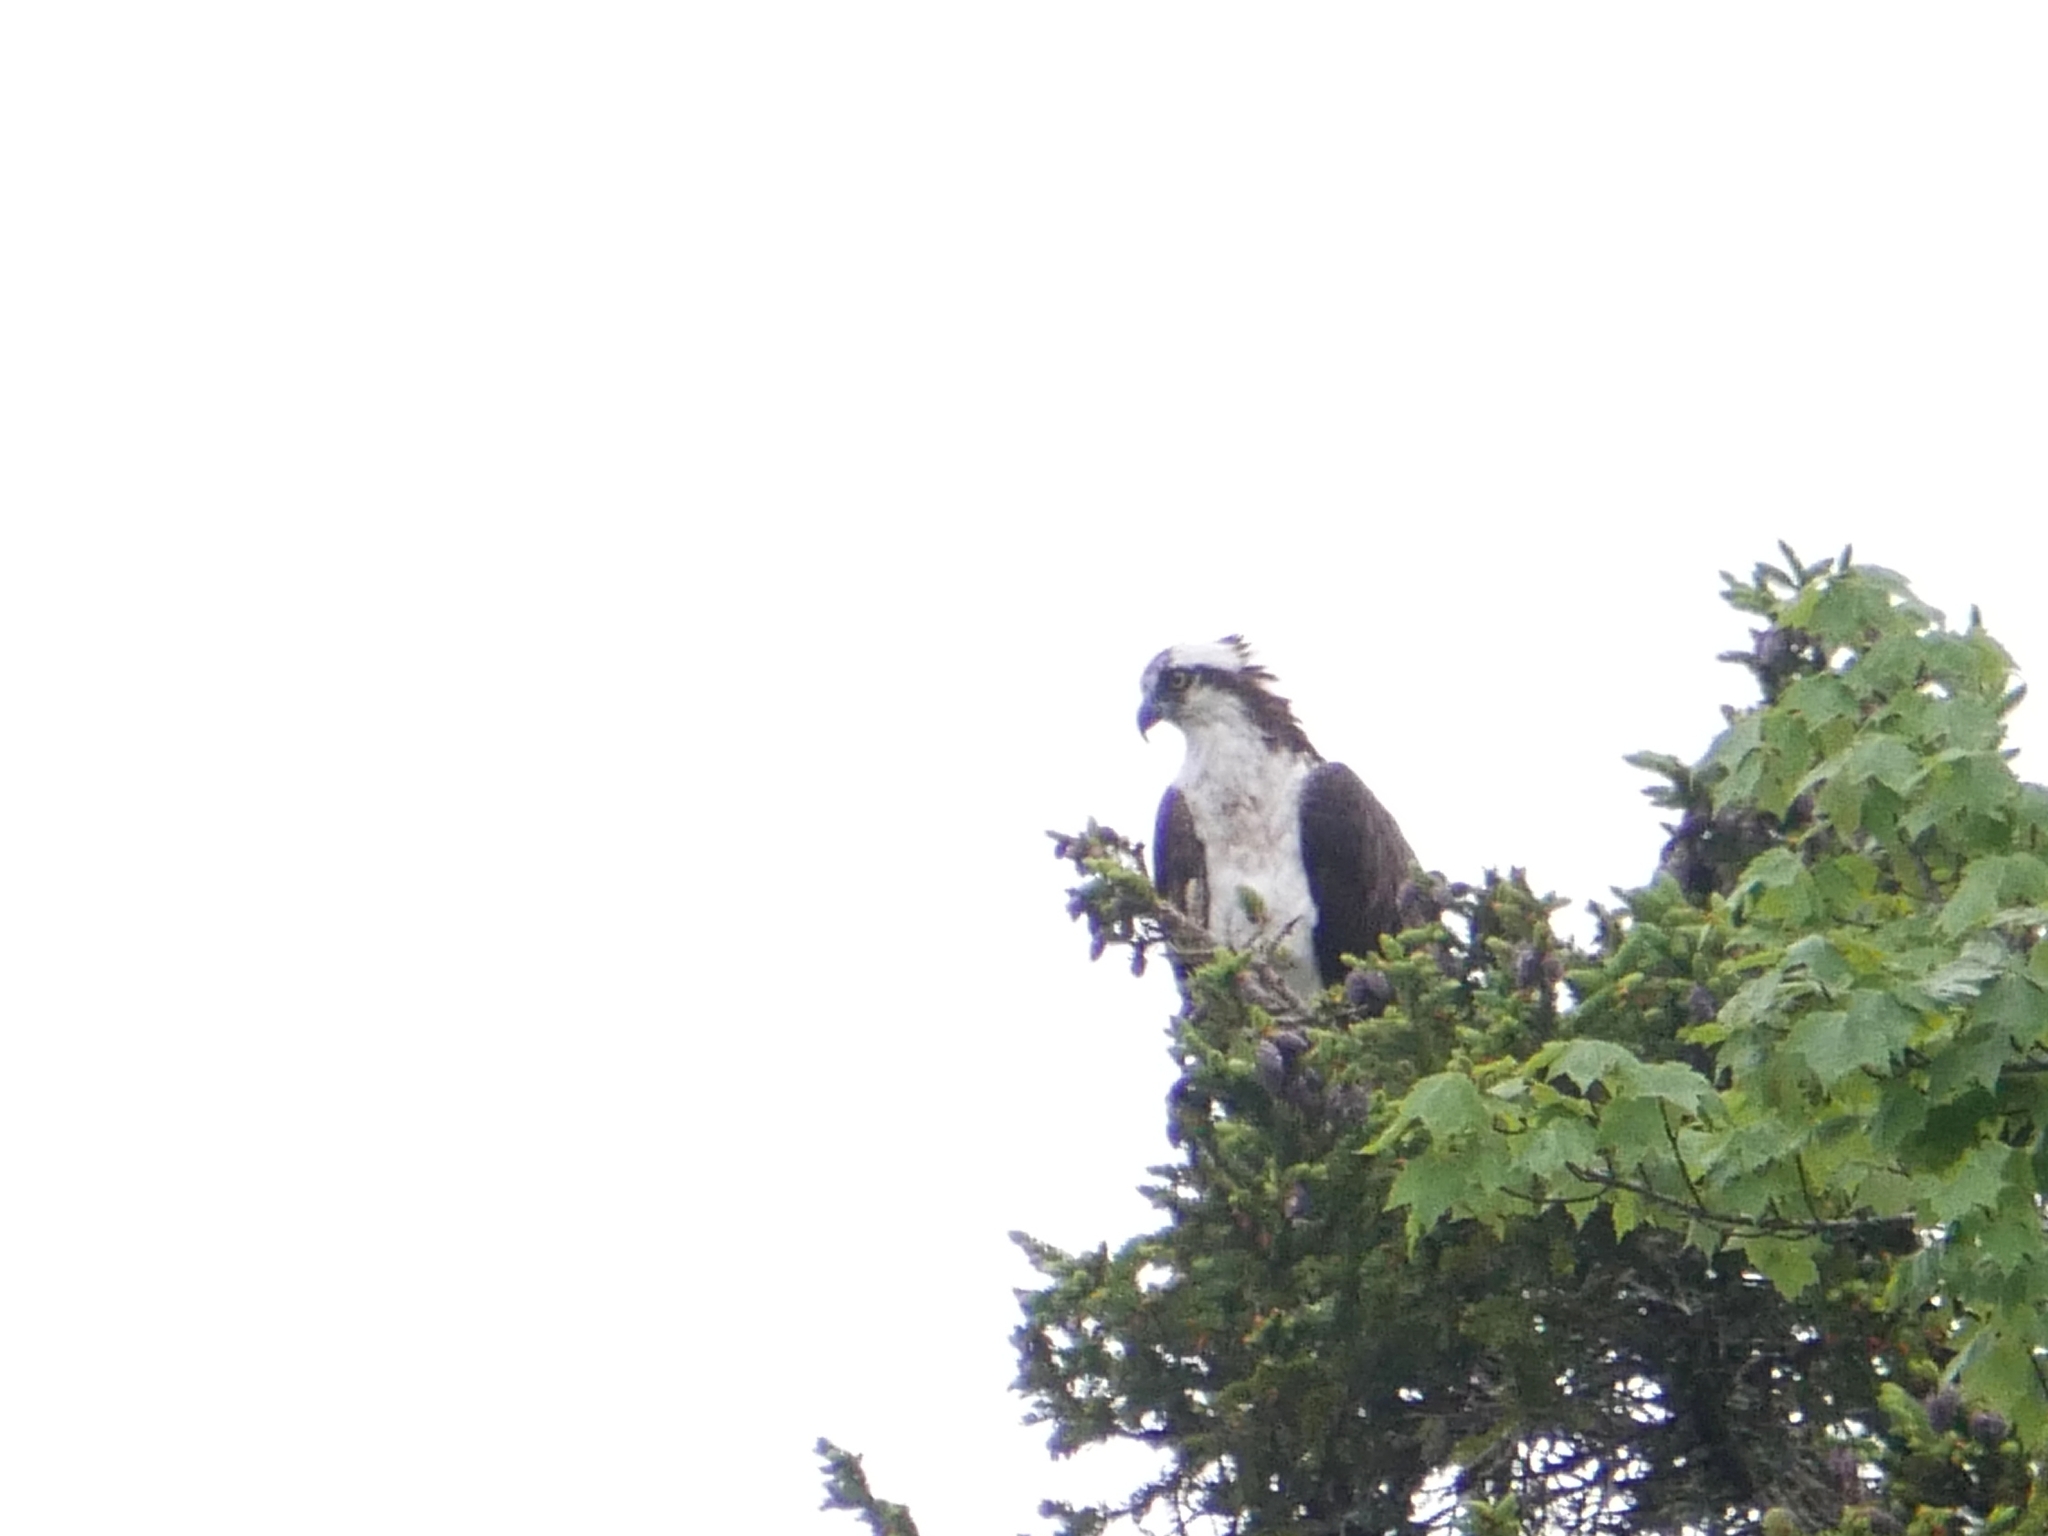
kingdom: Animalia
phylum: Chordata
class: Aves
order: Accipitriformes
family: Pandionidae
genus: Pandion
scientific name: Pandion haliaetus
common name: Osprey
